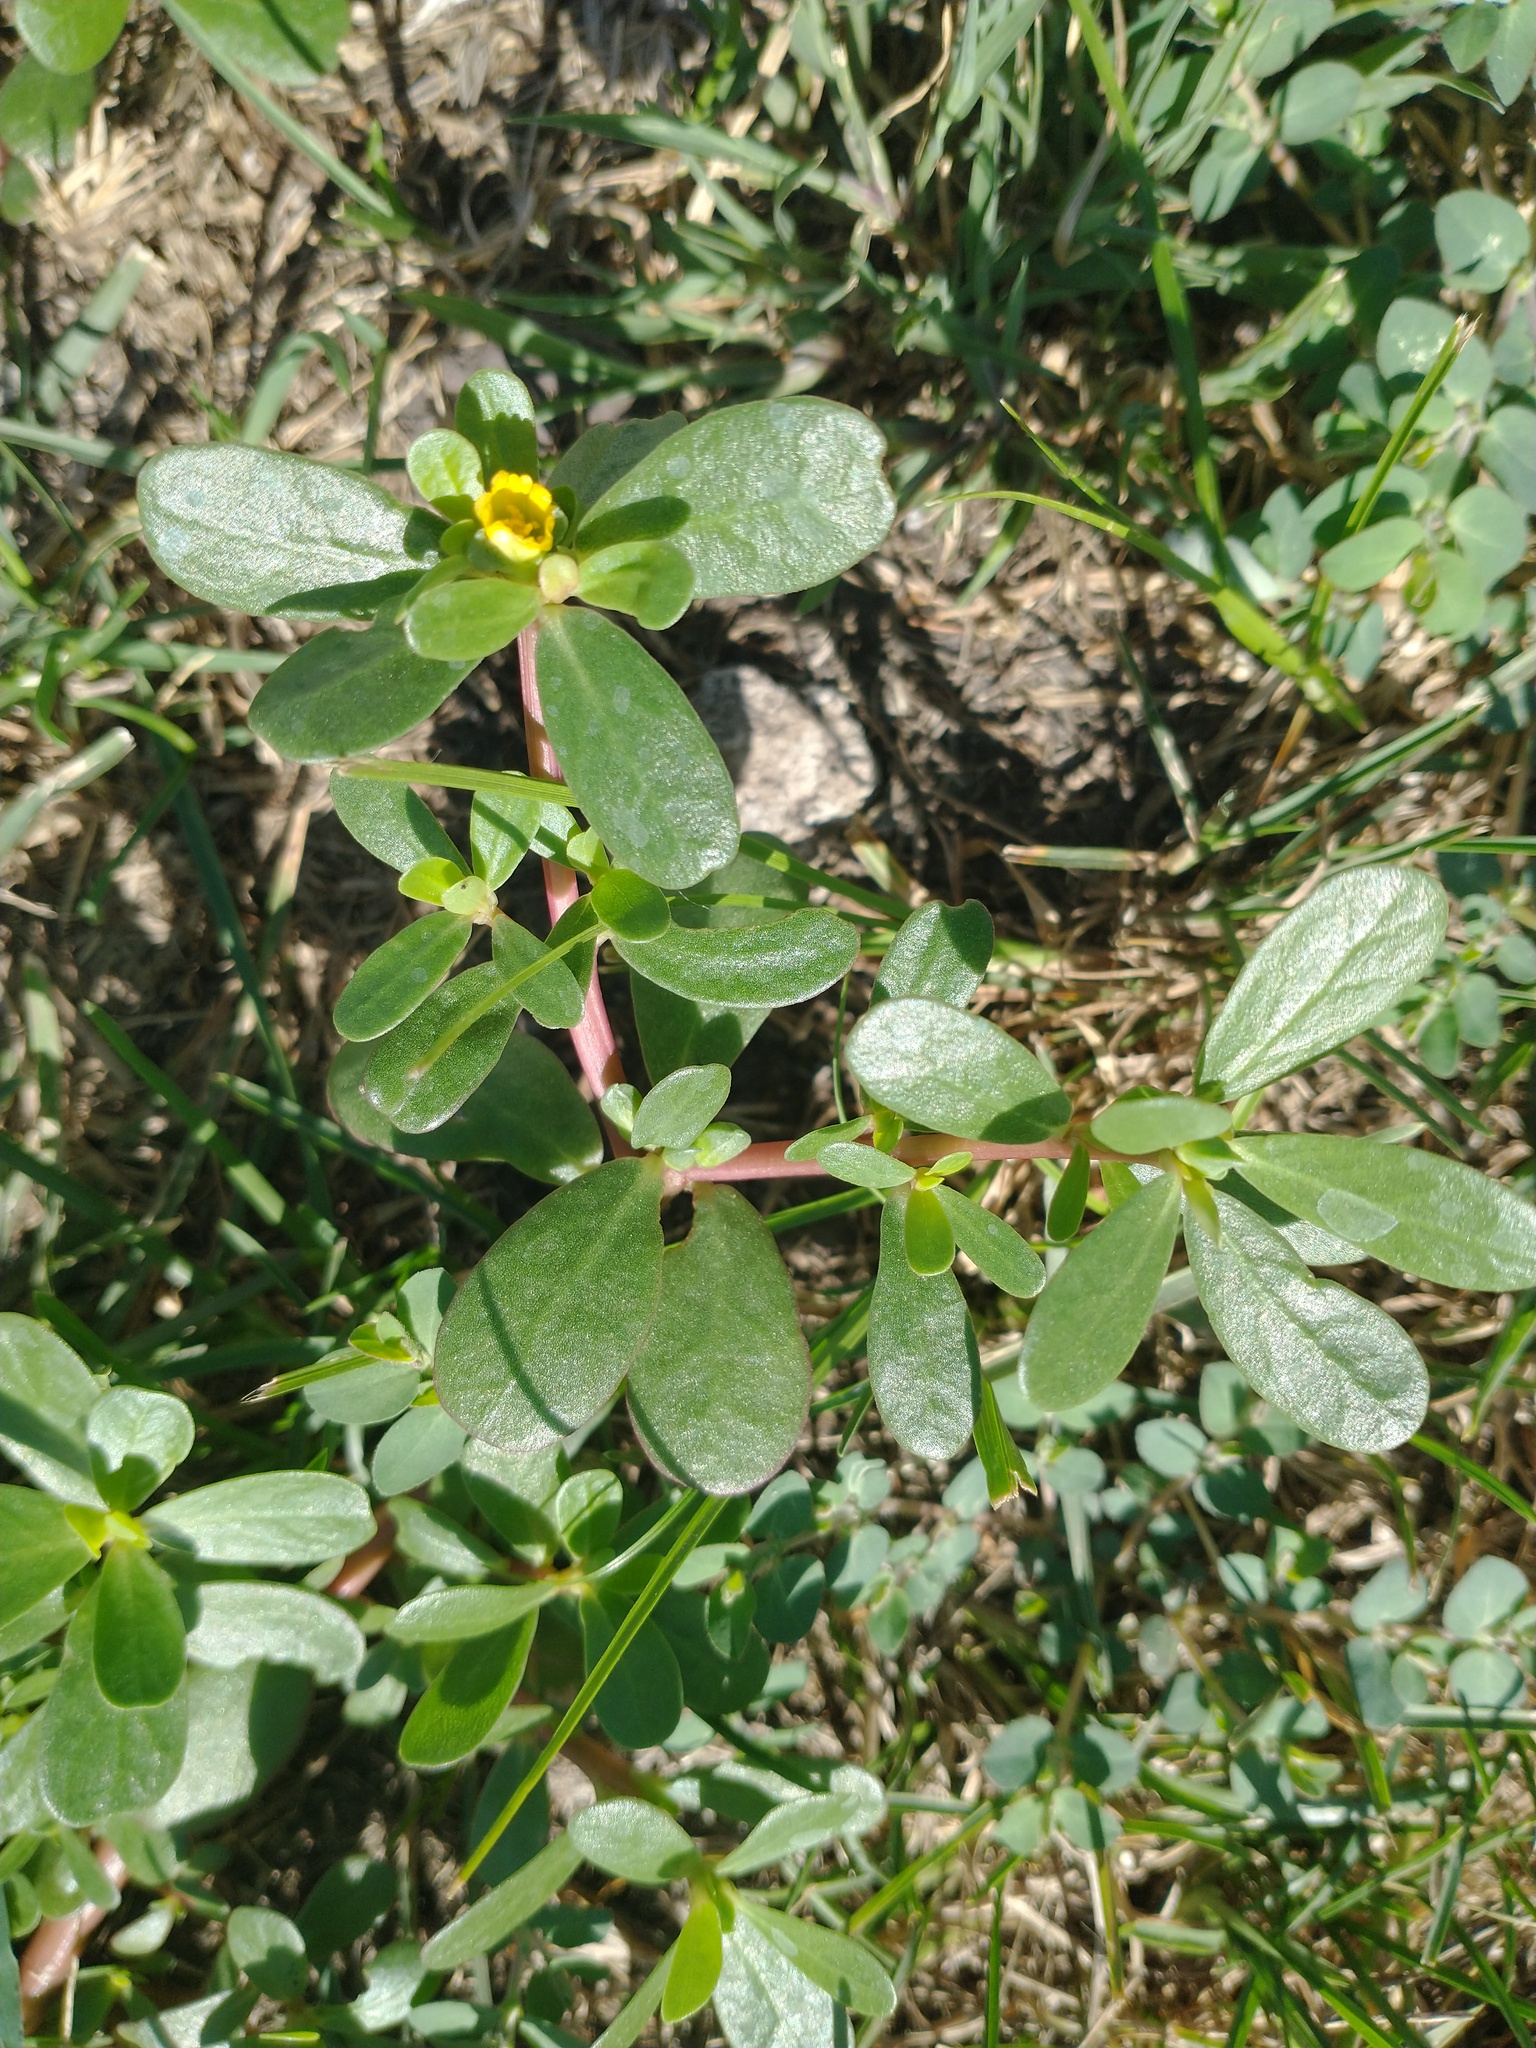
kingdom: Plantae
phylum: Tracheophyta
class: Magnoliopsida
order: Caryophyllales
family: Portulacaceae
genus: Portulaca
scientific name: Portulaca oleracea
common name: Common purslane
